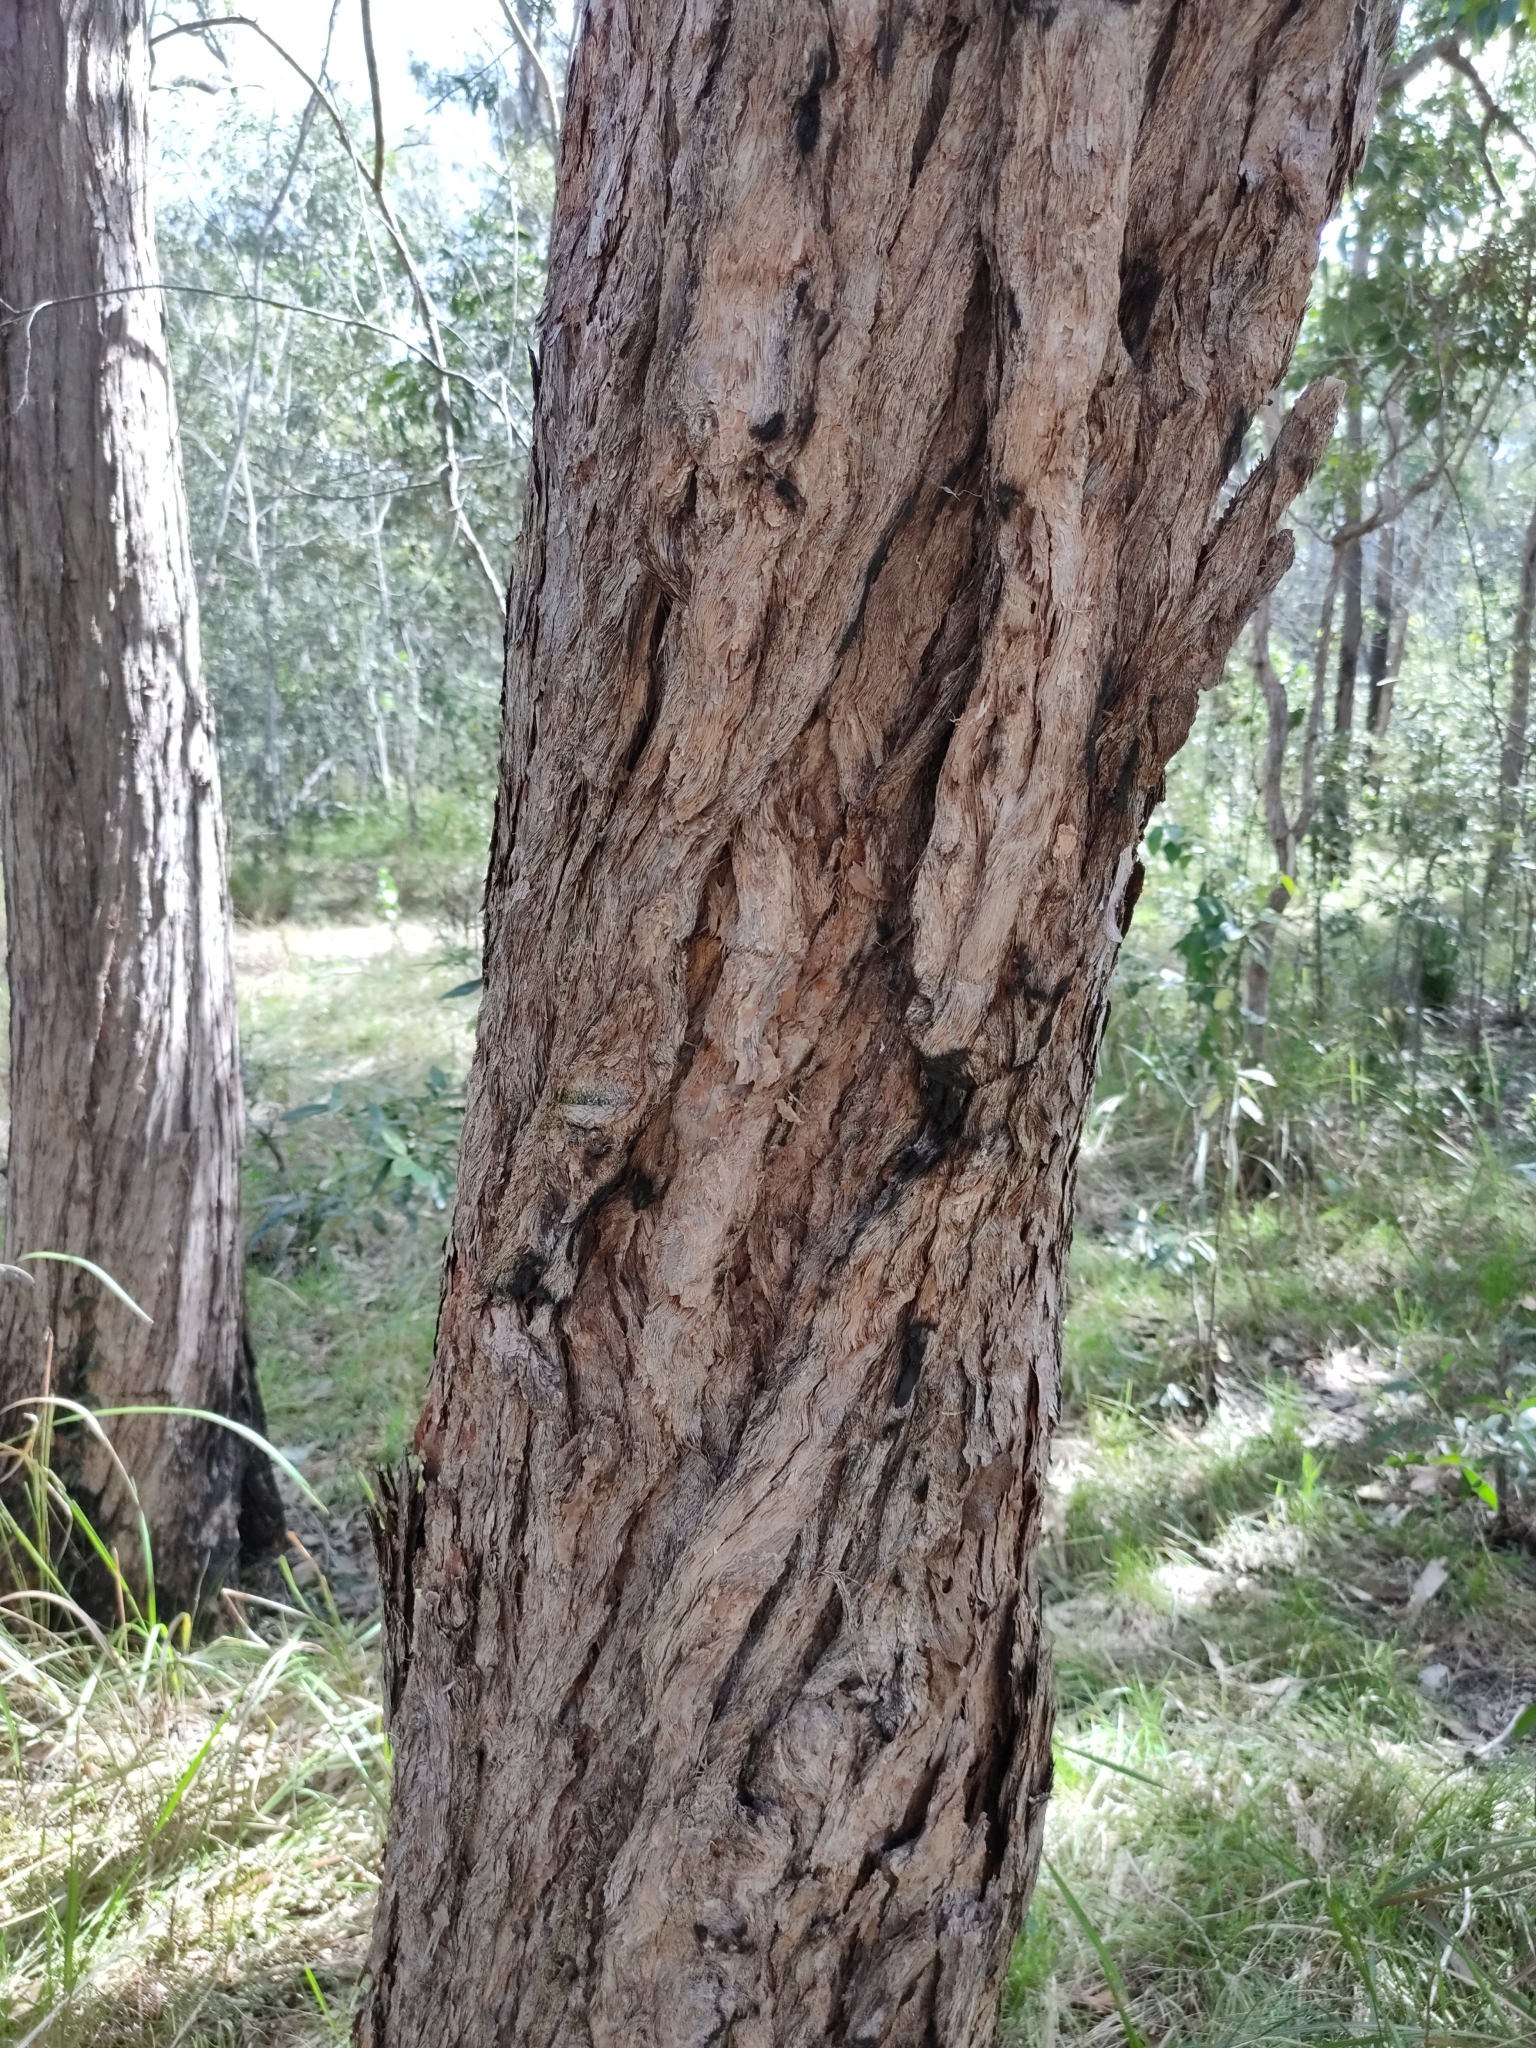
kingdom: Plantae
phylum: Tracheophyta
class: Magnoliopsida
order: Myrtales
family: Myrtaceae
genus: Lophostemon
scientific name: Lophostemon suaveolens
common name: Paperbark-mahogany
